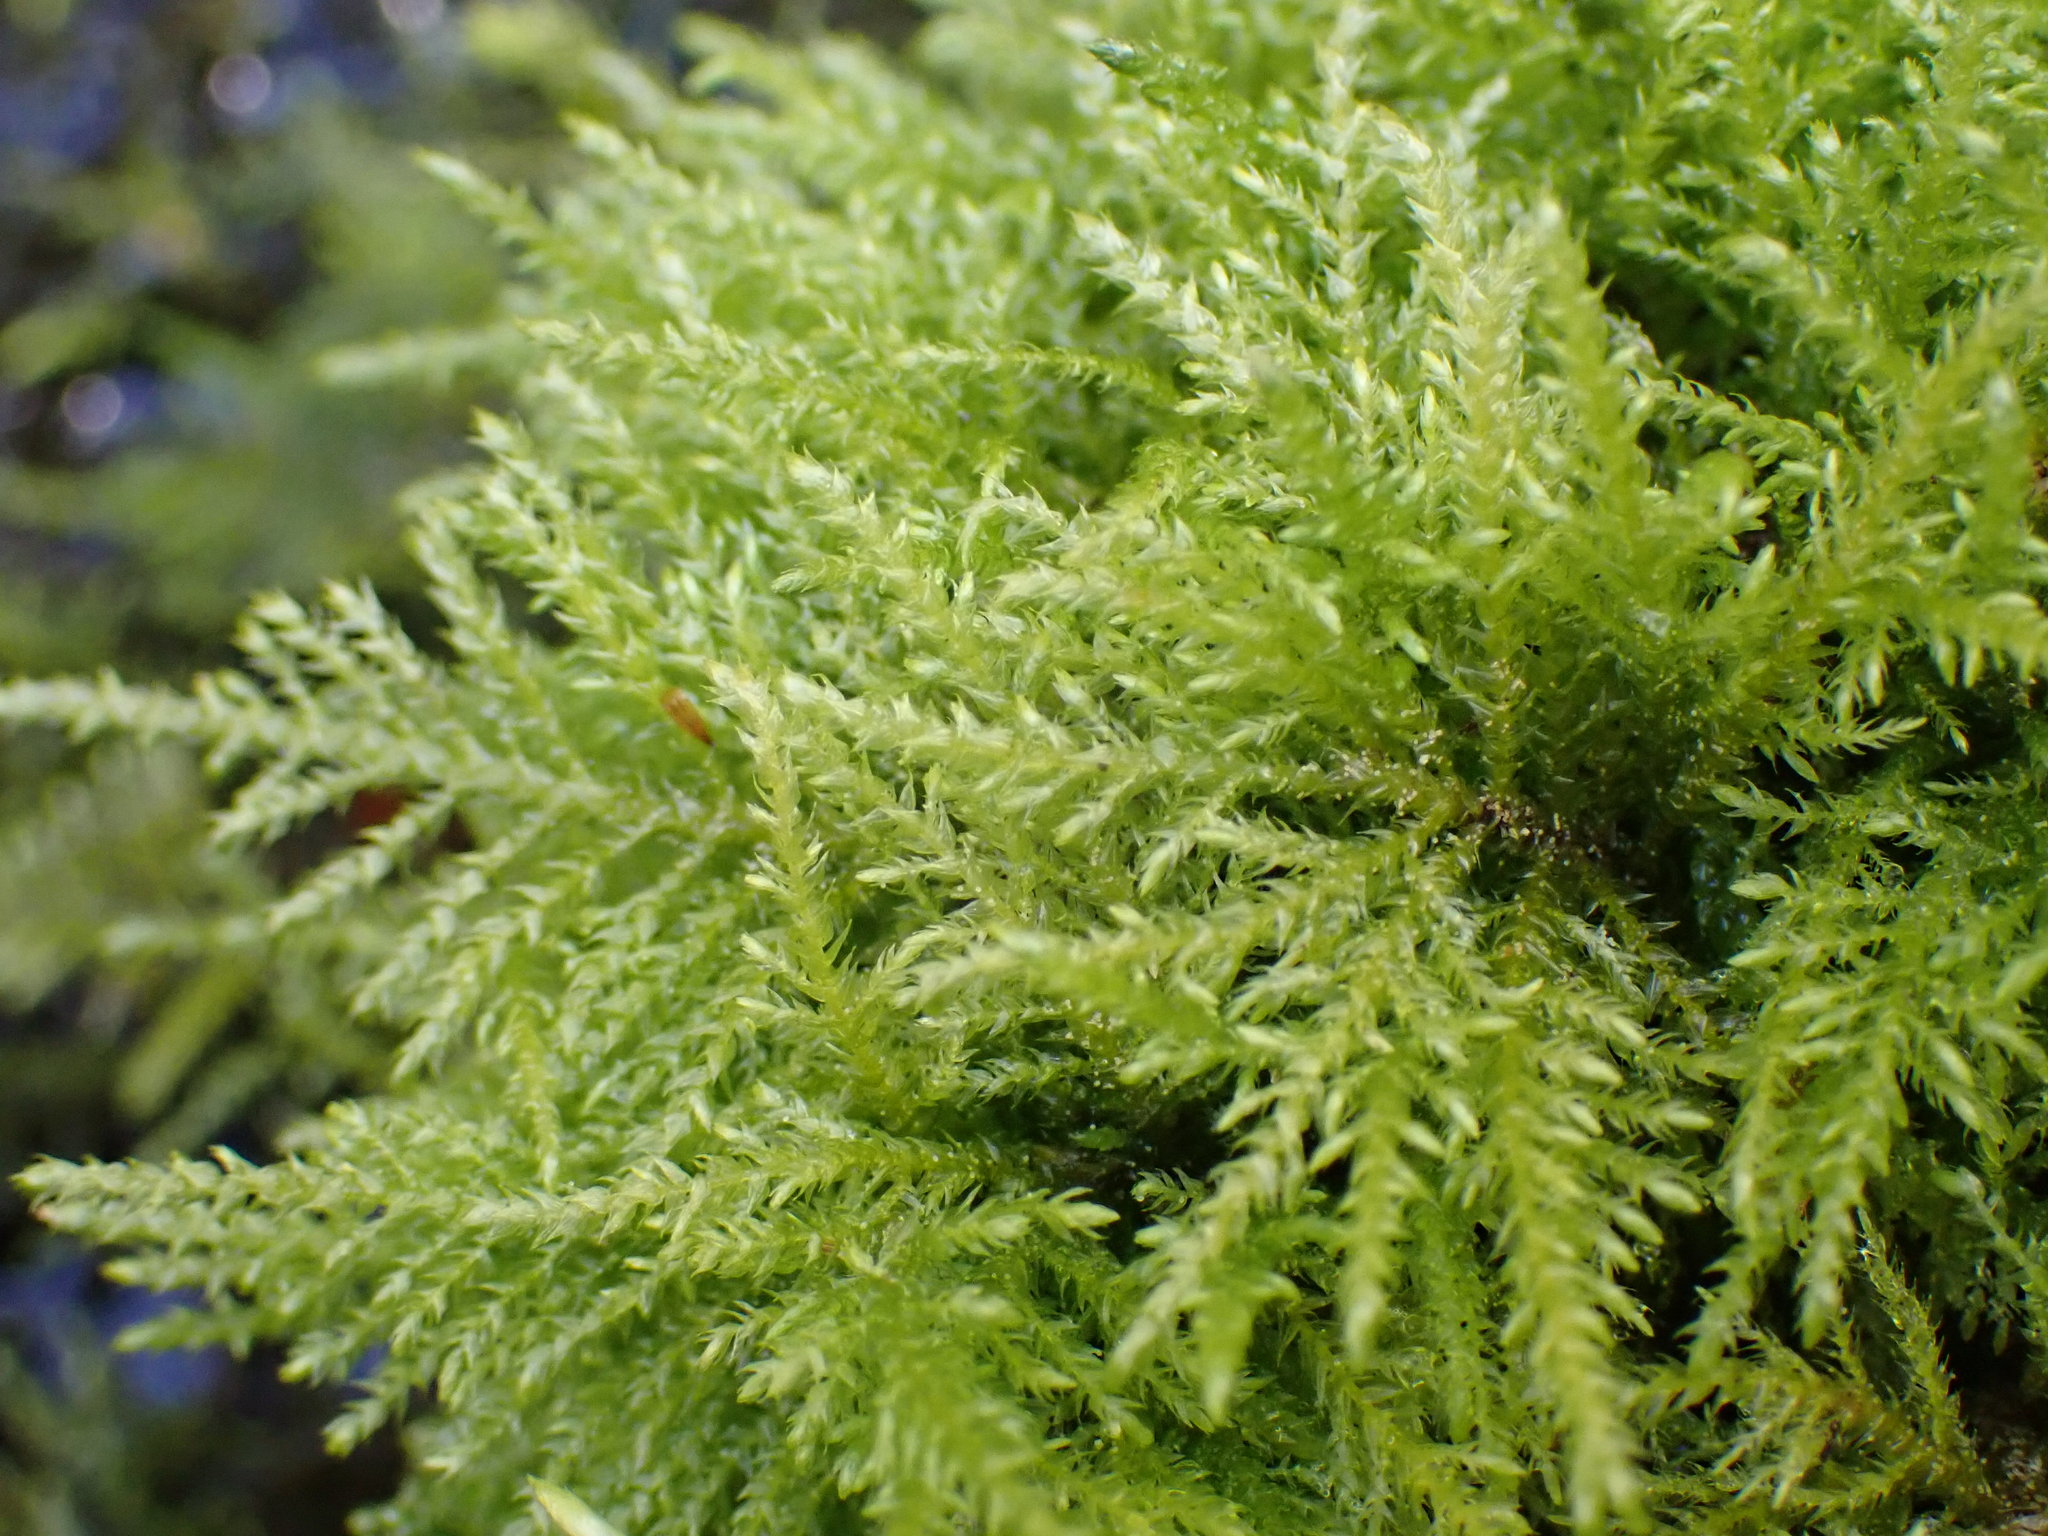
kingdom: Plantae
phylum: Bryophyta
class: Bryopsida
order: Hypnales
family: Brachytheciaceae
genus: Kindbergia
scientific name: Kindbergia praelonga
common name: Slender beaked moss
